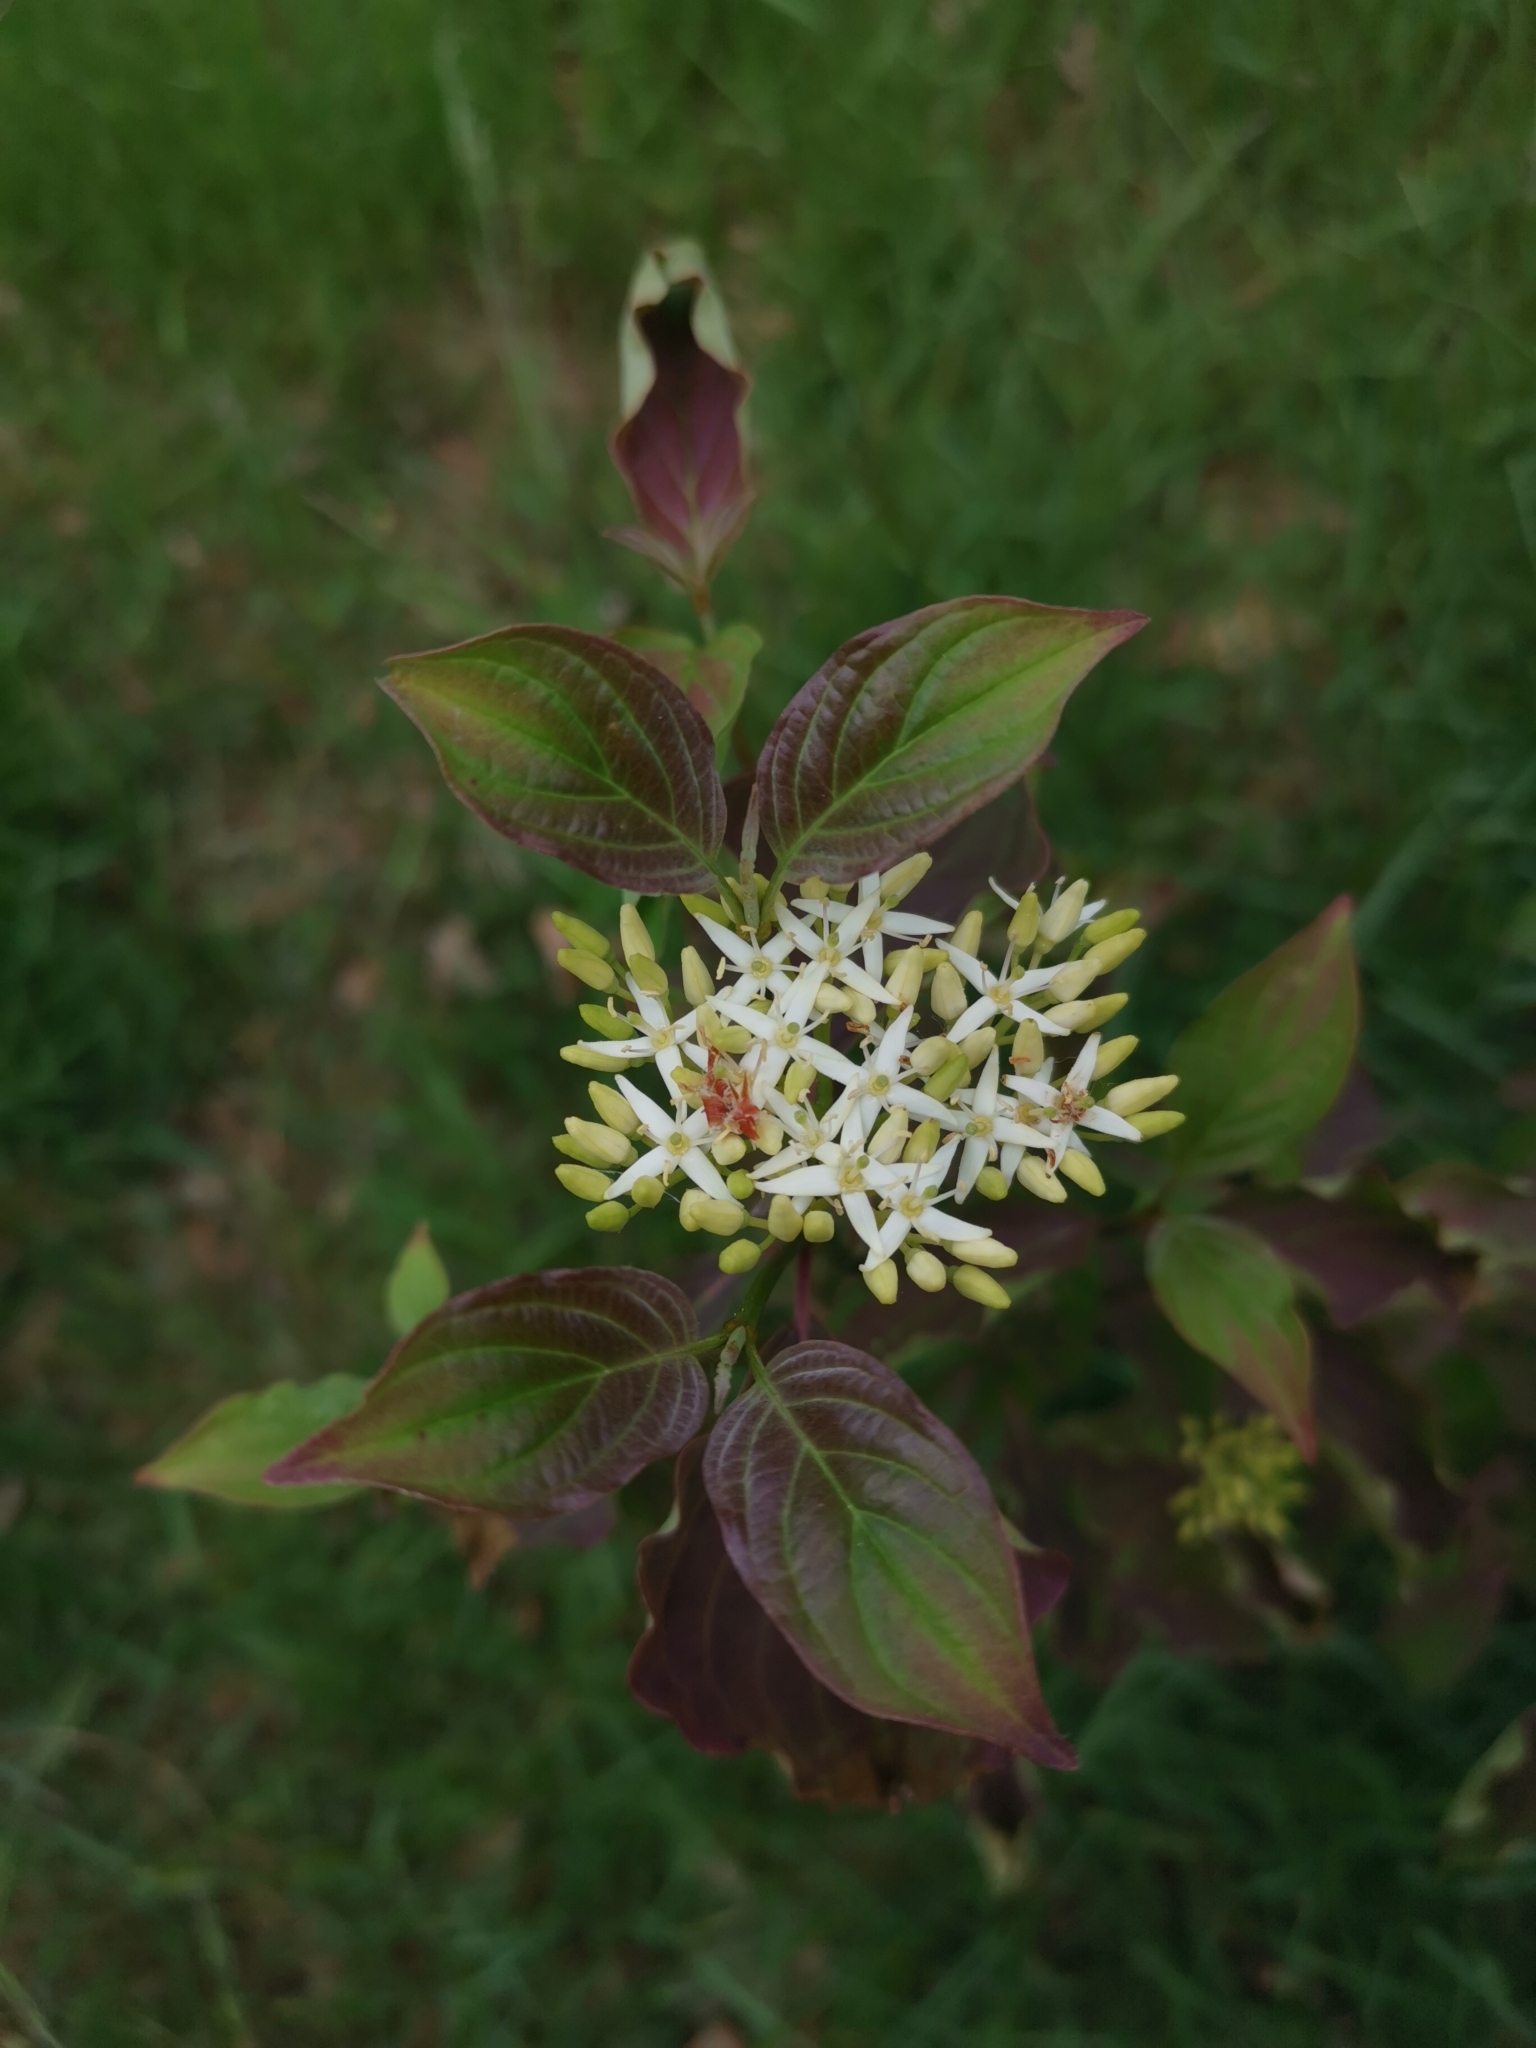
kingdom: Plantae
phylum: Tracheophyta
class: Magnoliopsida
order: Cornales
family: Cornaceae
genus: Cornus
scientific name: Cornus sanguinea
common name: Dogwood
